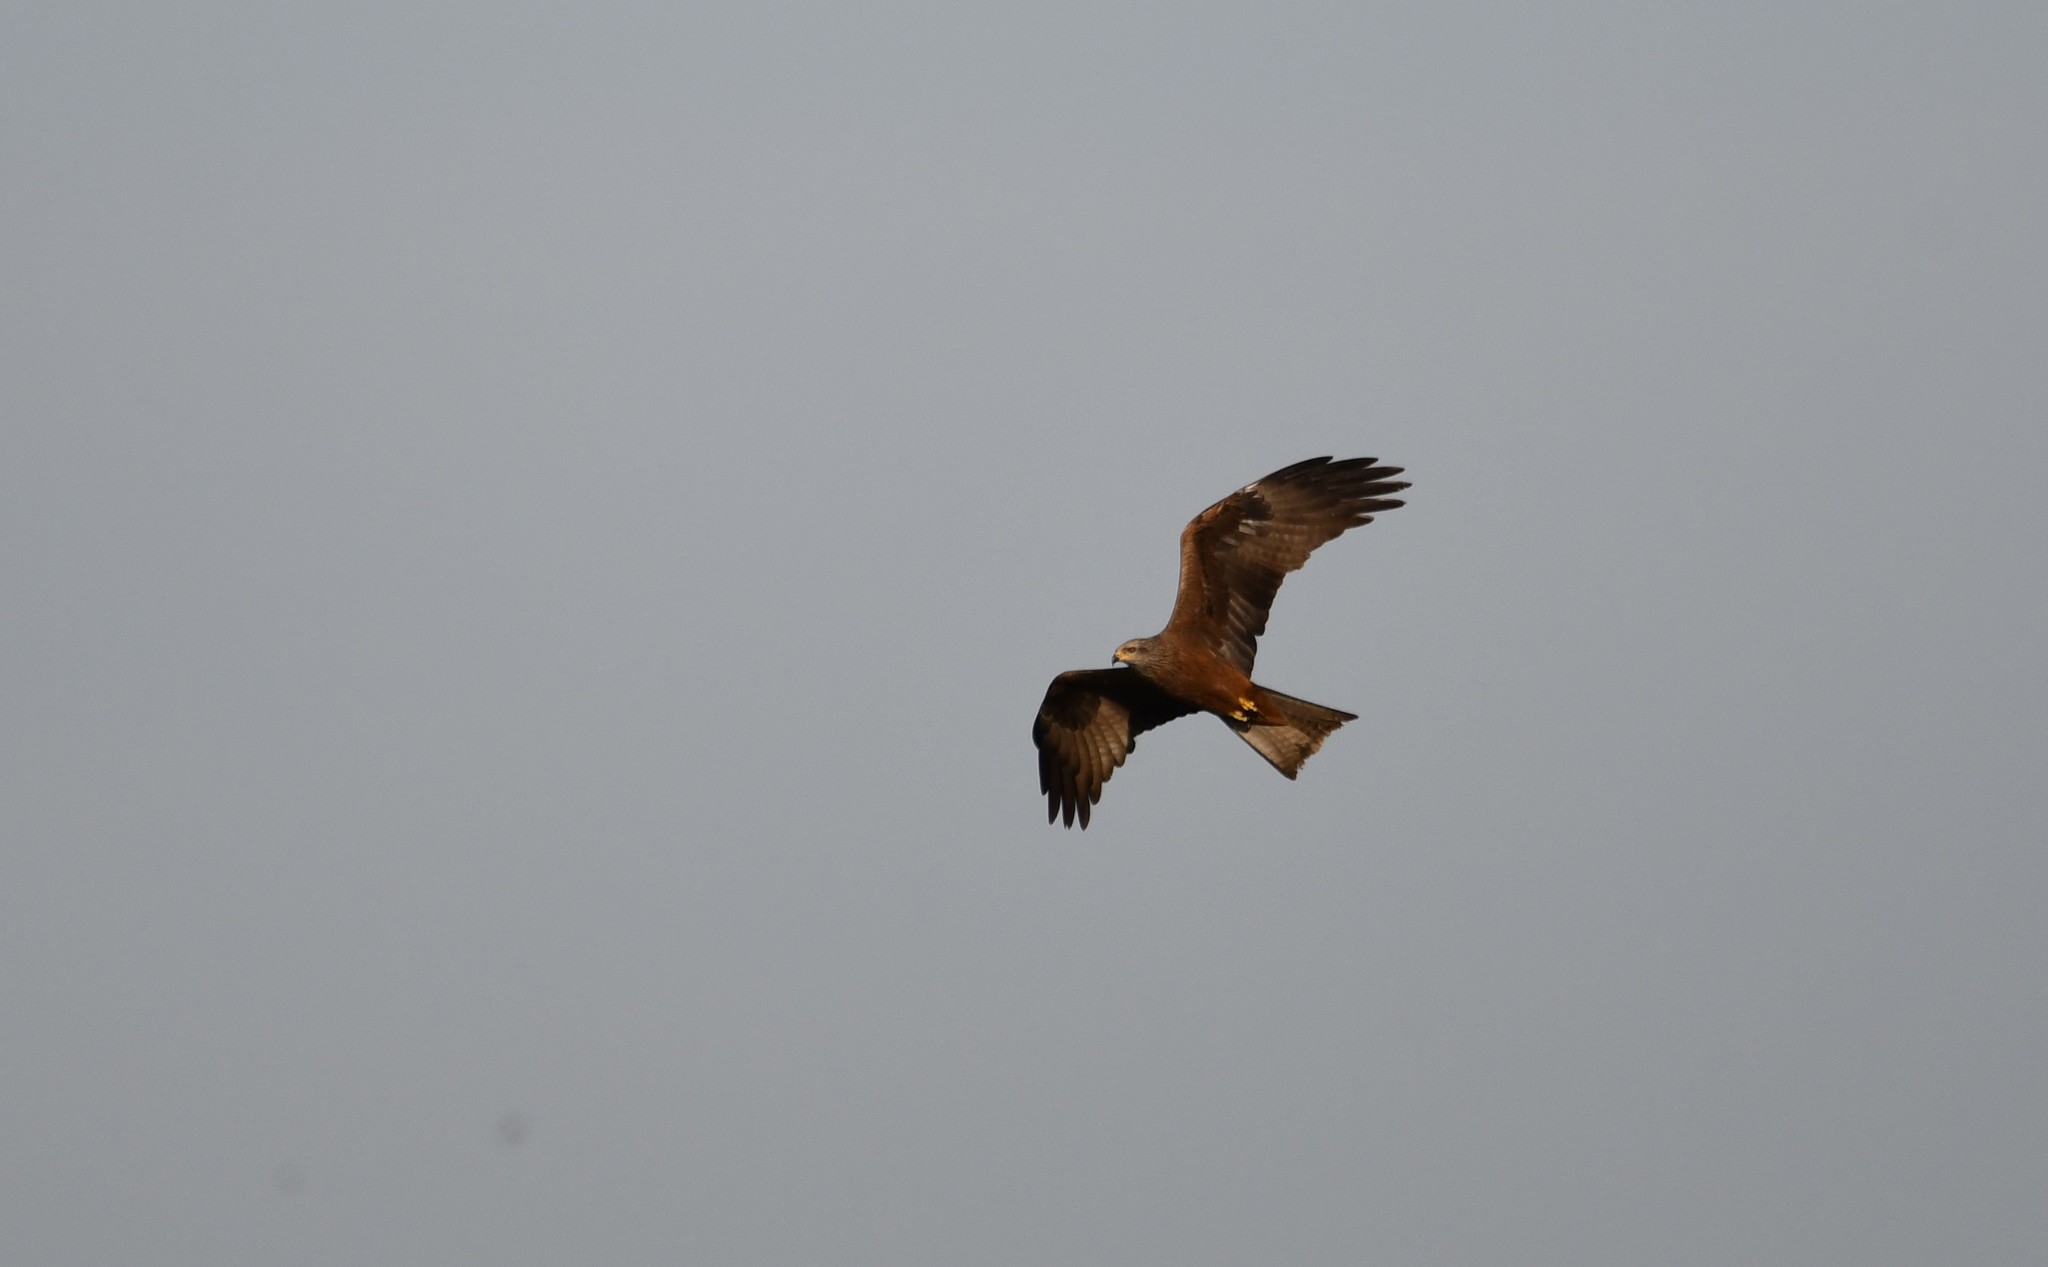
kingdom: Animalia
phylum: Chordata
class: Aves
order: Accipitriformes
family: Accipitridae
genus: Milvus
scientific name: Milvus migrans
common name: Black kite
